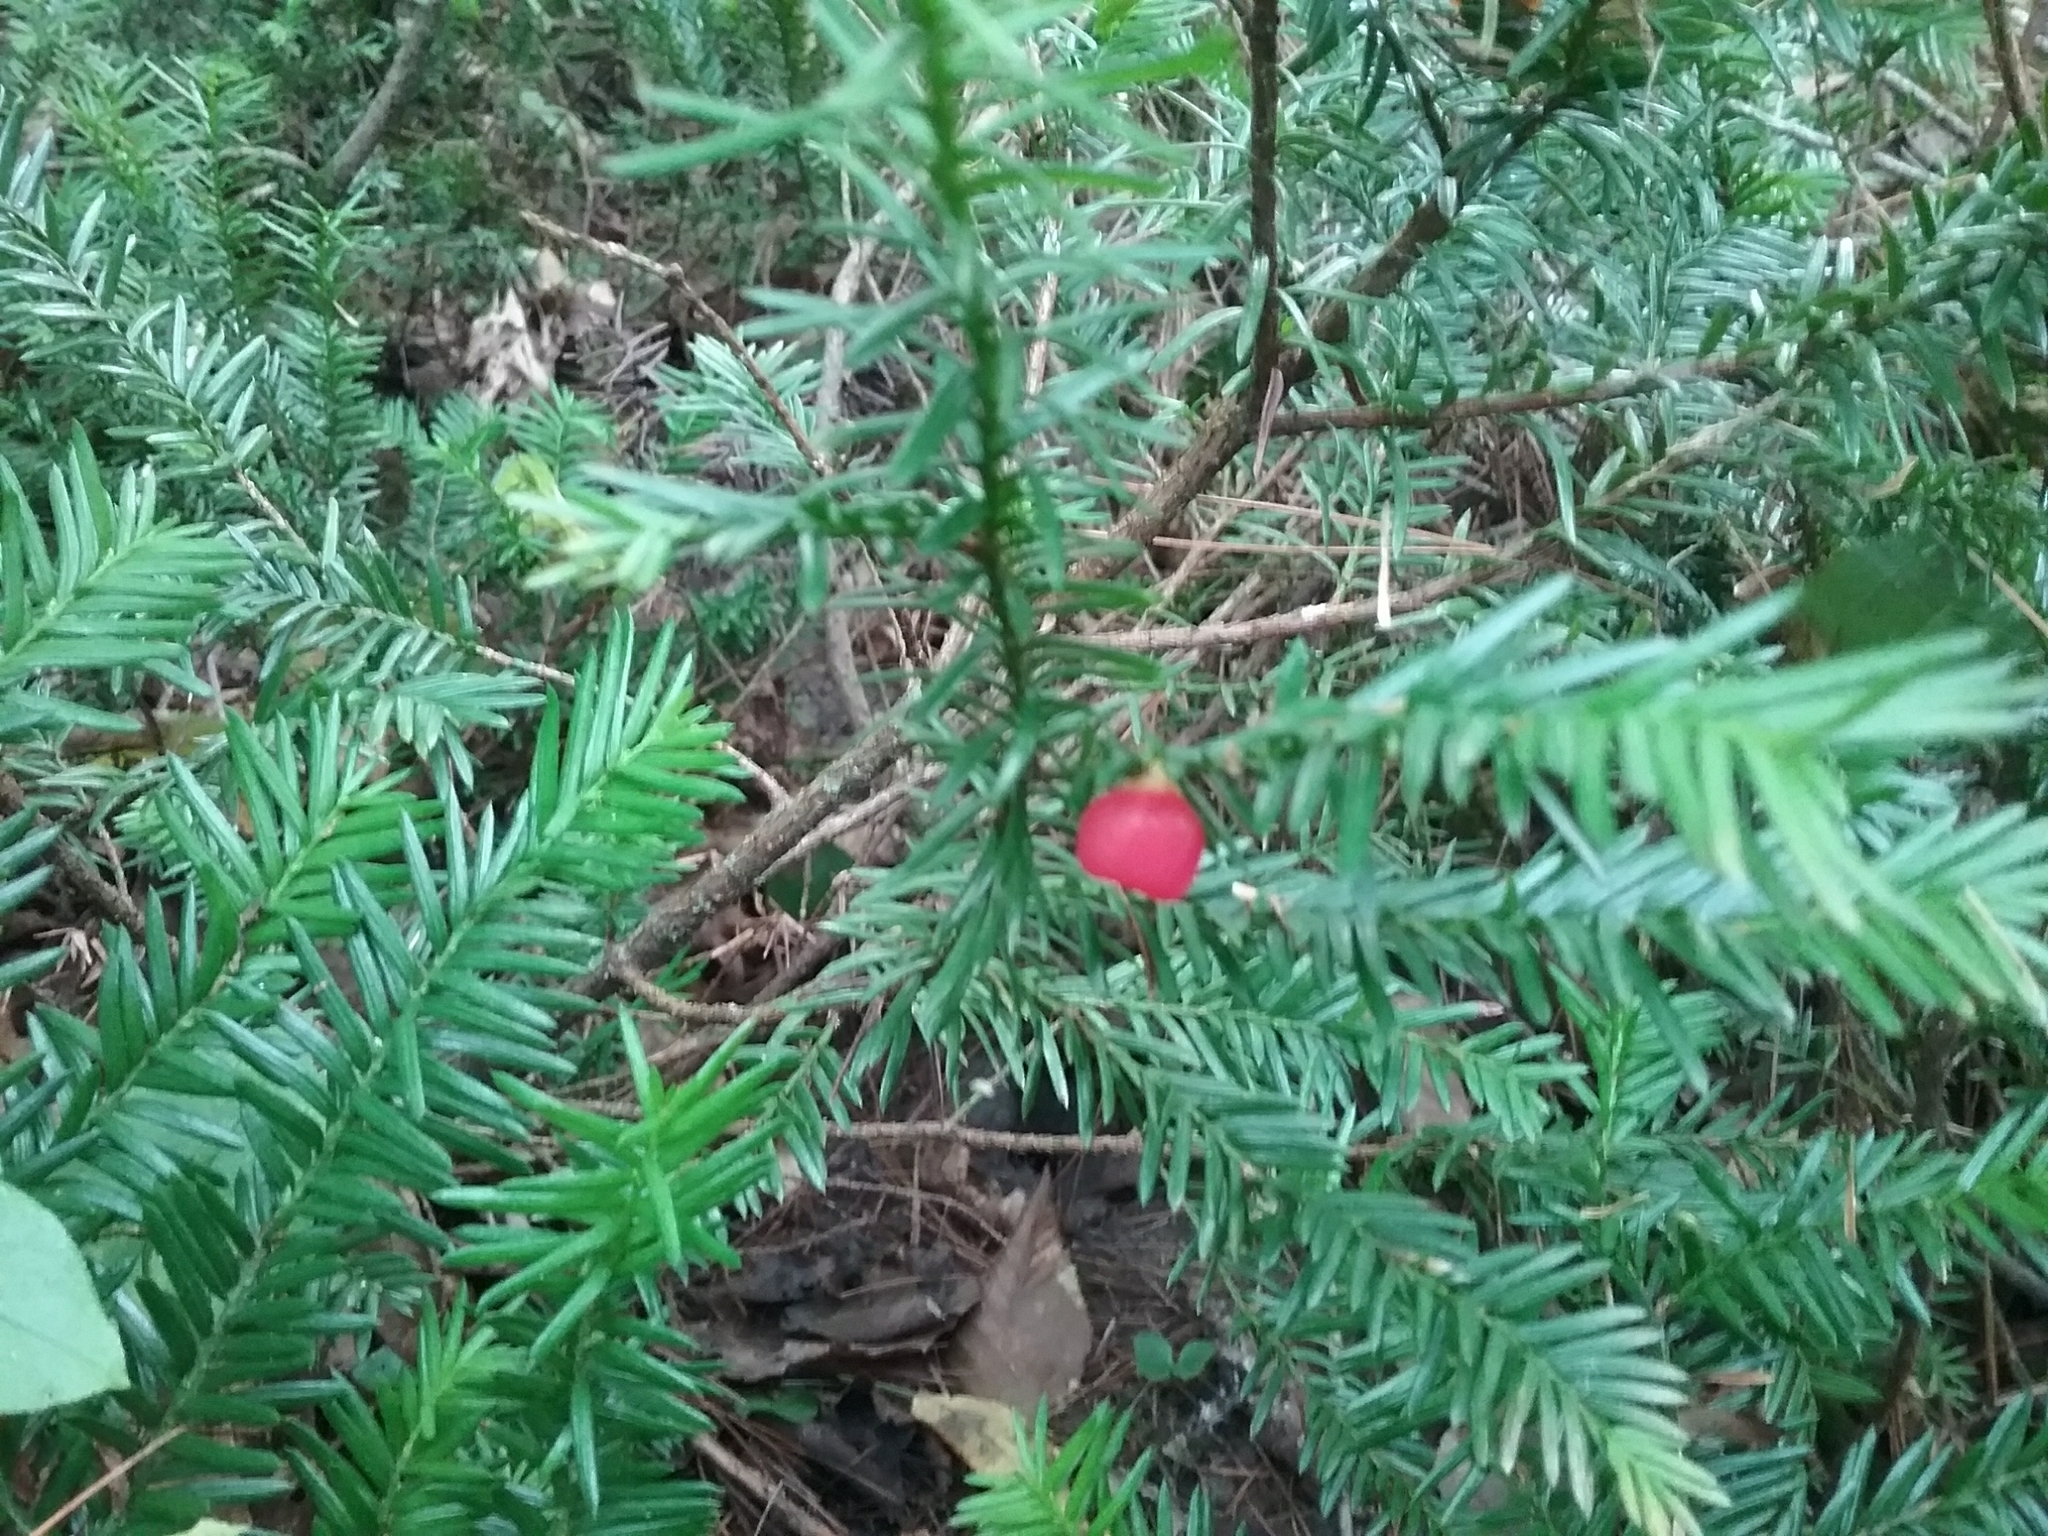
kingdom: Plantae
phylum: Tracheophyta
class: Pinopsida
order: Pinales
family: Taxaceae
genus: Taxus
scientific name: Taxus canadensis
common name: American yew
